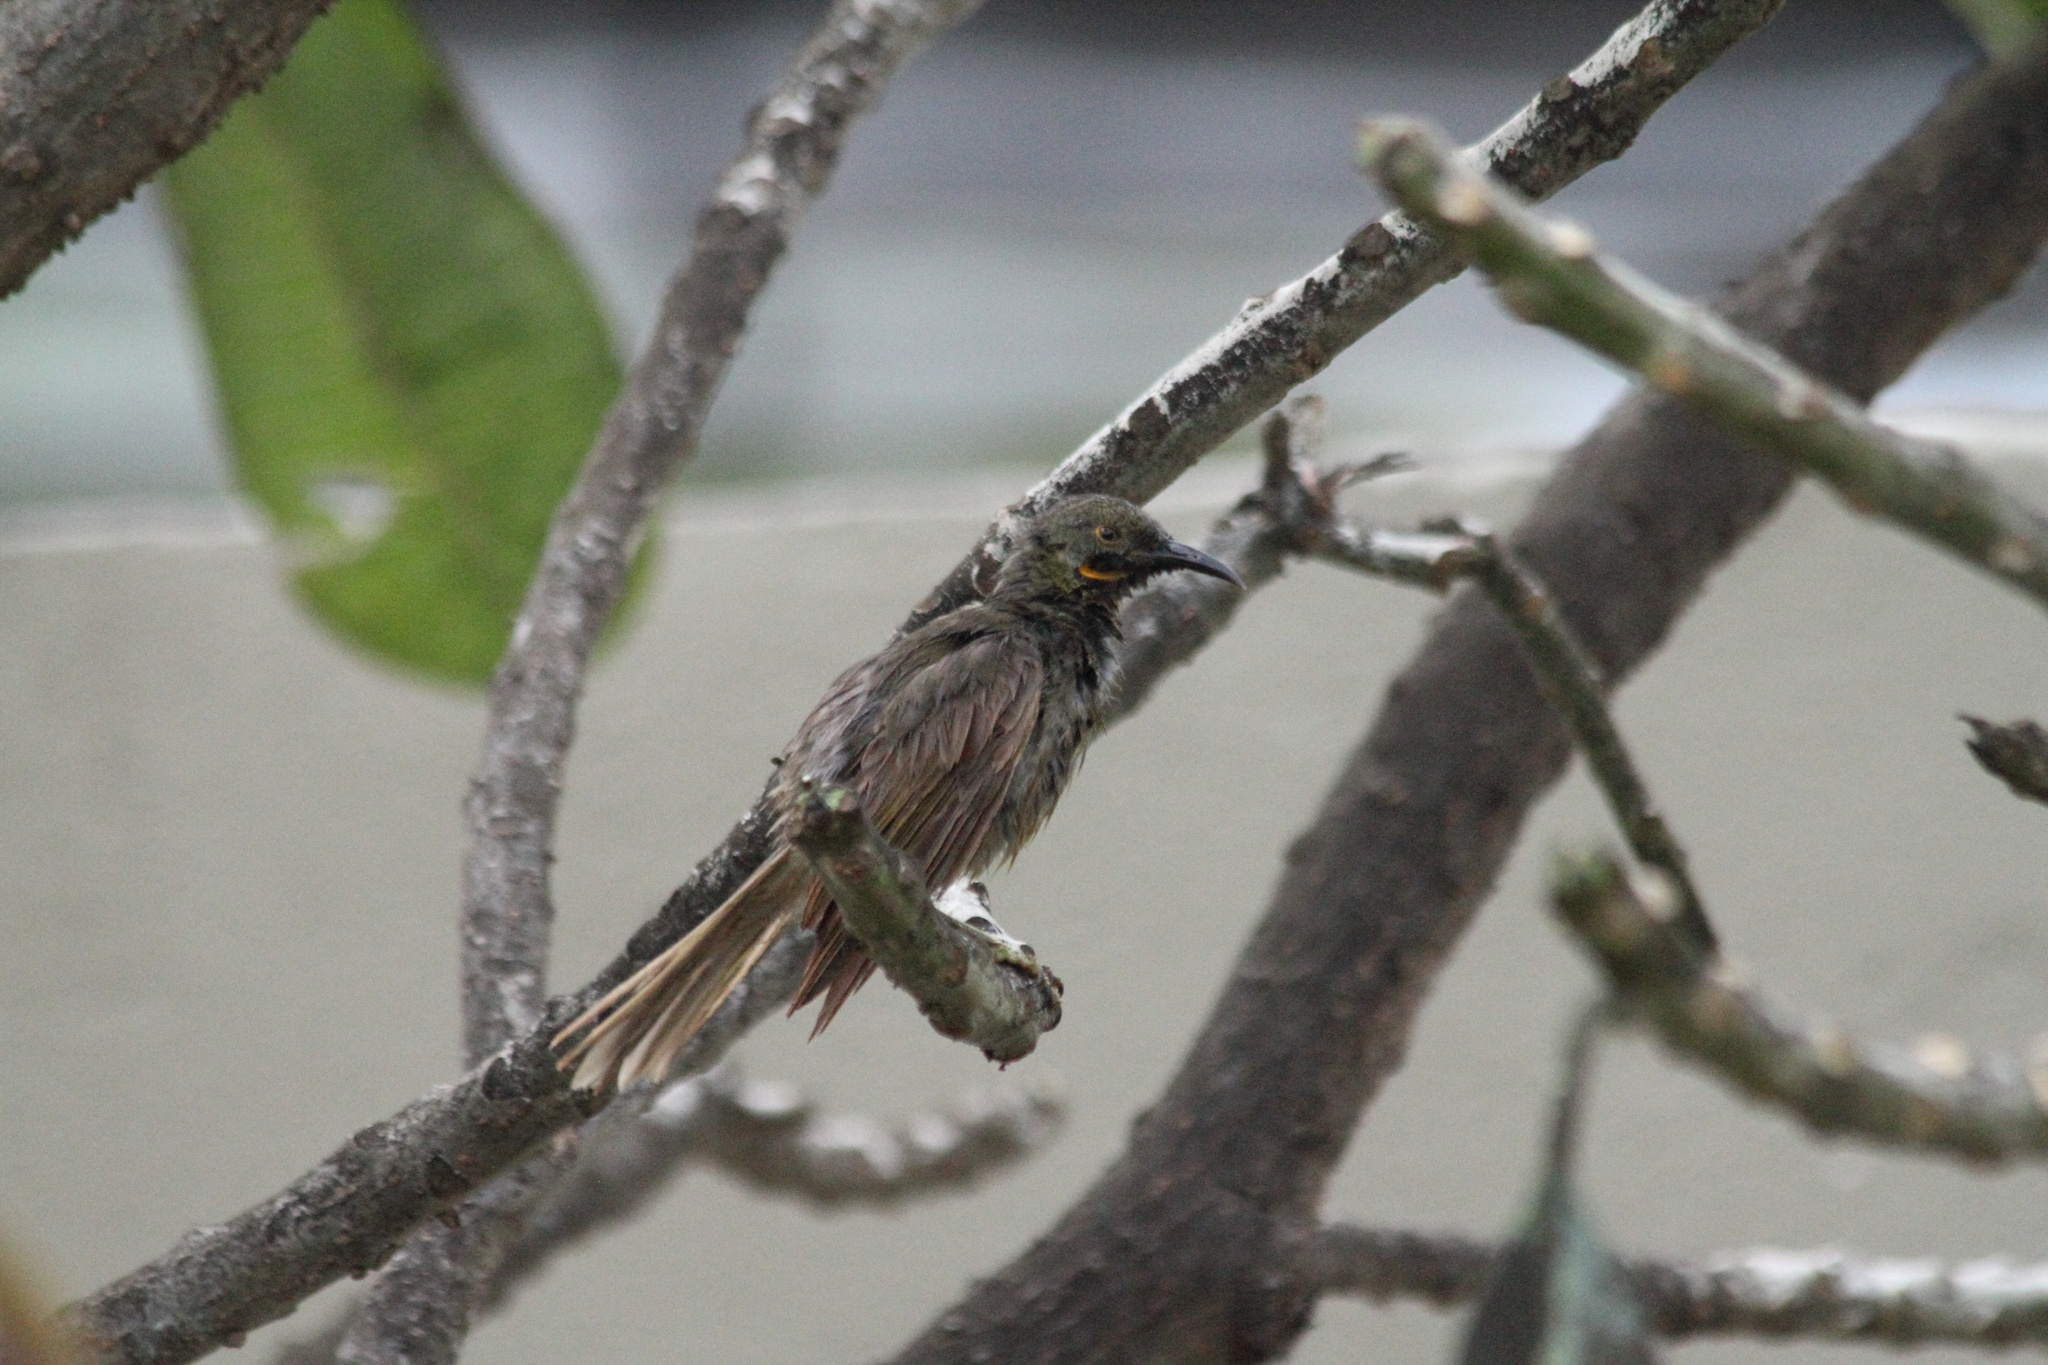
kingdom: Animalia
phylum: Chordata
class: Aves
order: Passeriformes
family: Meliphagidae
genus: Foulehaio
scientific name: Foulehaio procerior
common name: Kikau
